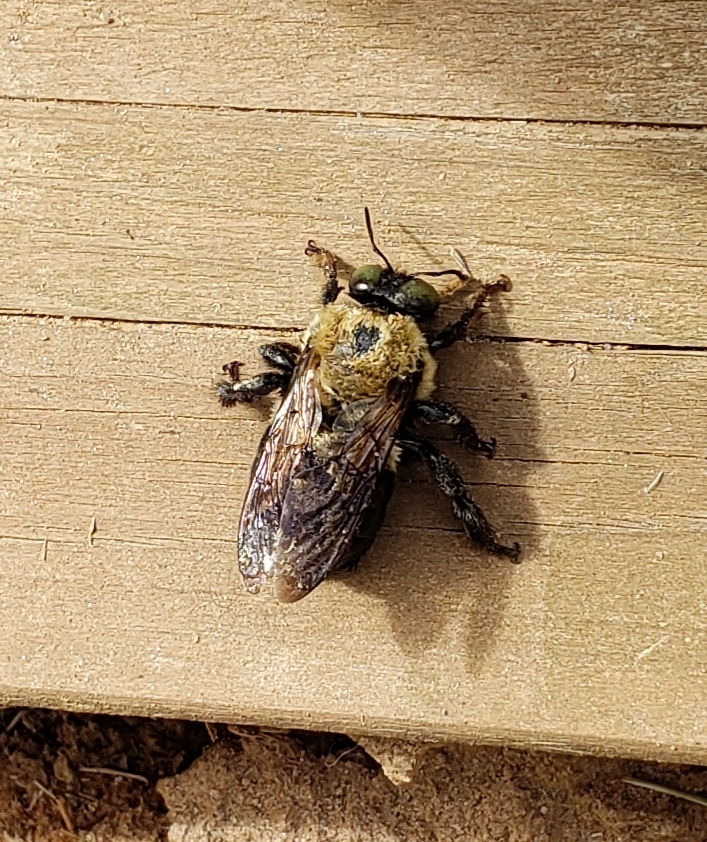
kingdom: Animalia
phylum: Arthropoda
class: Insecta
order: Hymenoptera
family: Apidae
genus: Xylocopa
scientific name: Xylocopa virginica
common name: Carpenter bee
